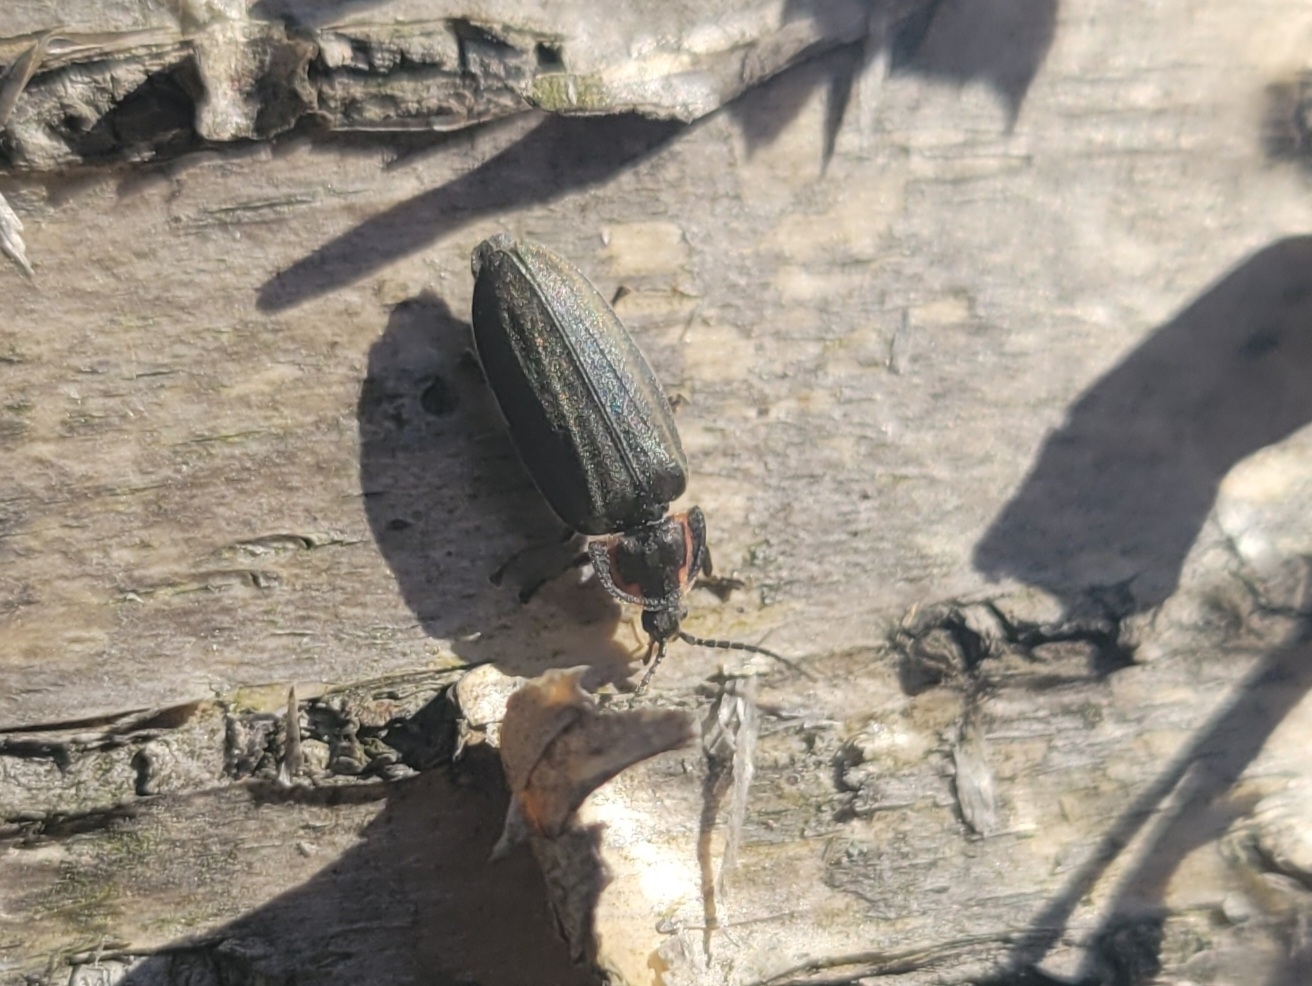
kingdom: Animalia
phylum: Arthropoda
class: Insecta
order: Coleoptera
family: Lampyridae
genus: Photinus
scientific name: Photinus corrusca
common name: Winter firefly
